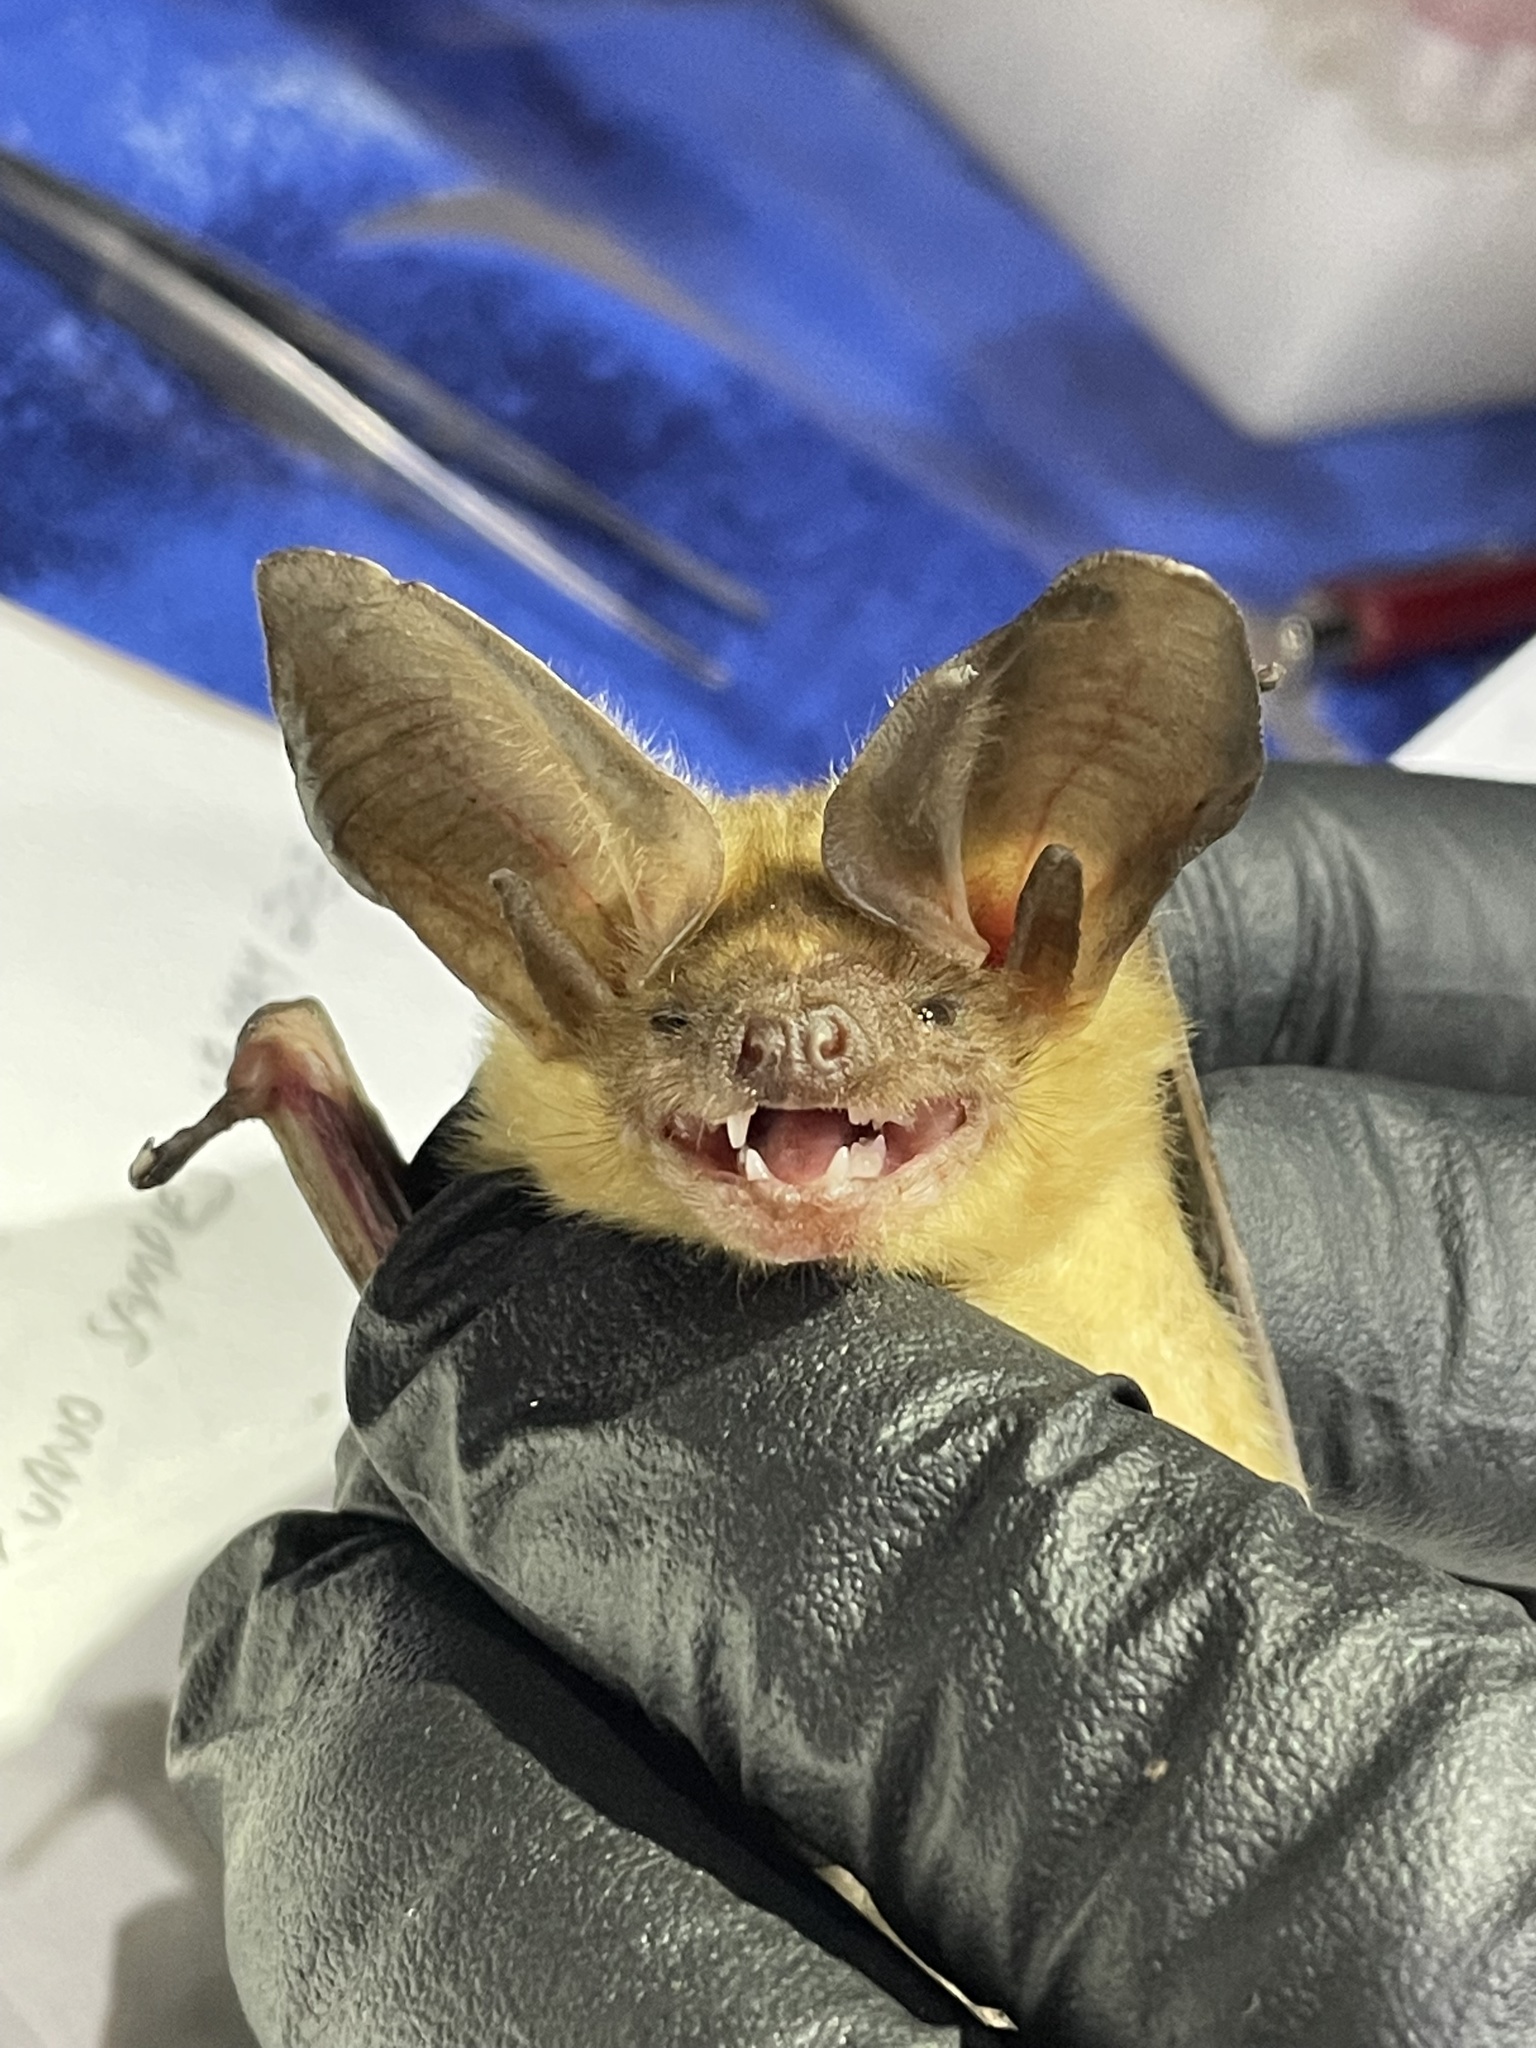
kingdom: Animalia
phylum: Chordata
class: Mammalia
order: Chiroptera
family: Vespertilionidae
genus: Antrozous
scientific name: Antrozous pallidus
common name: Pallid bat
